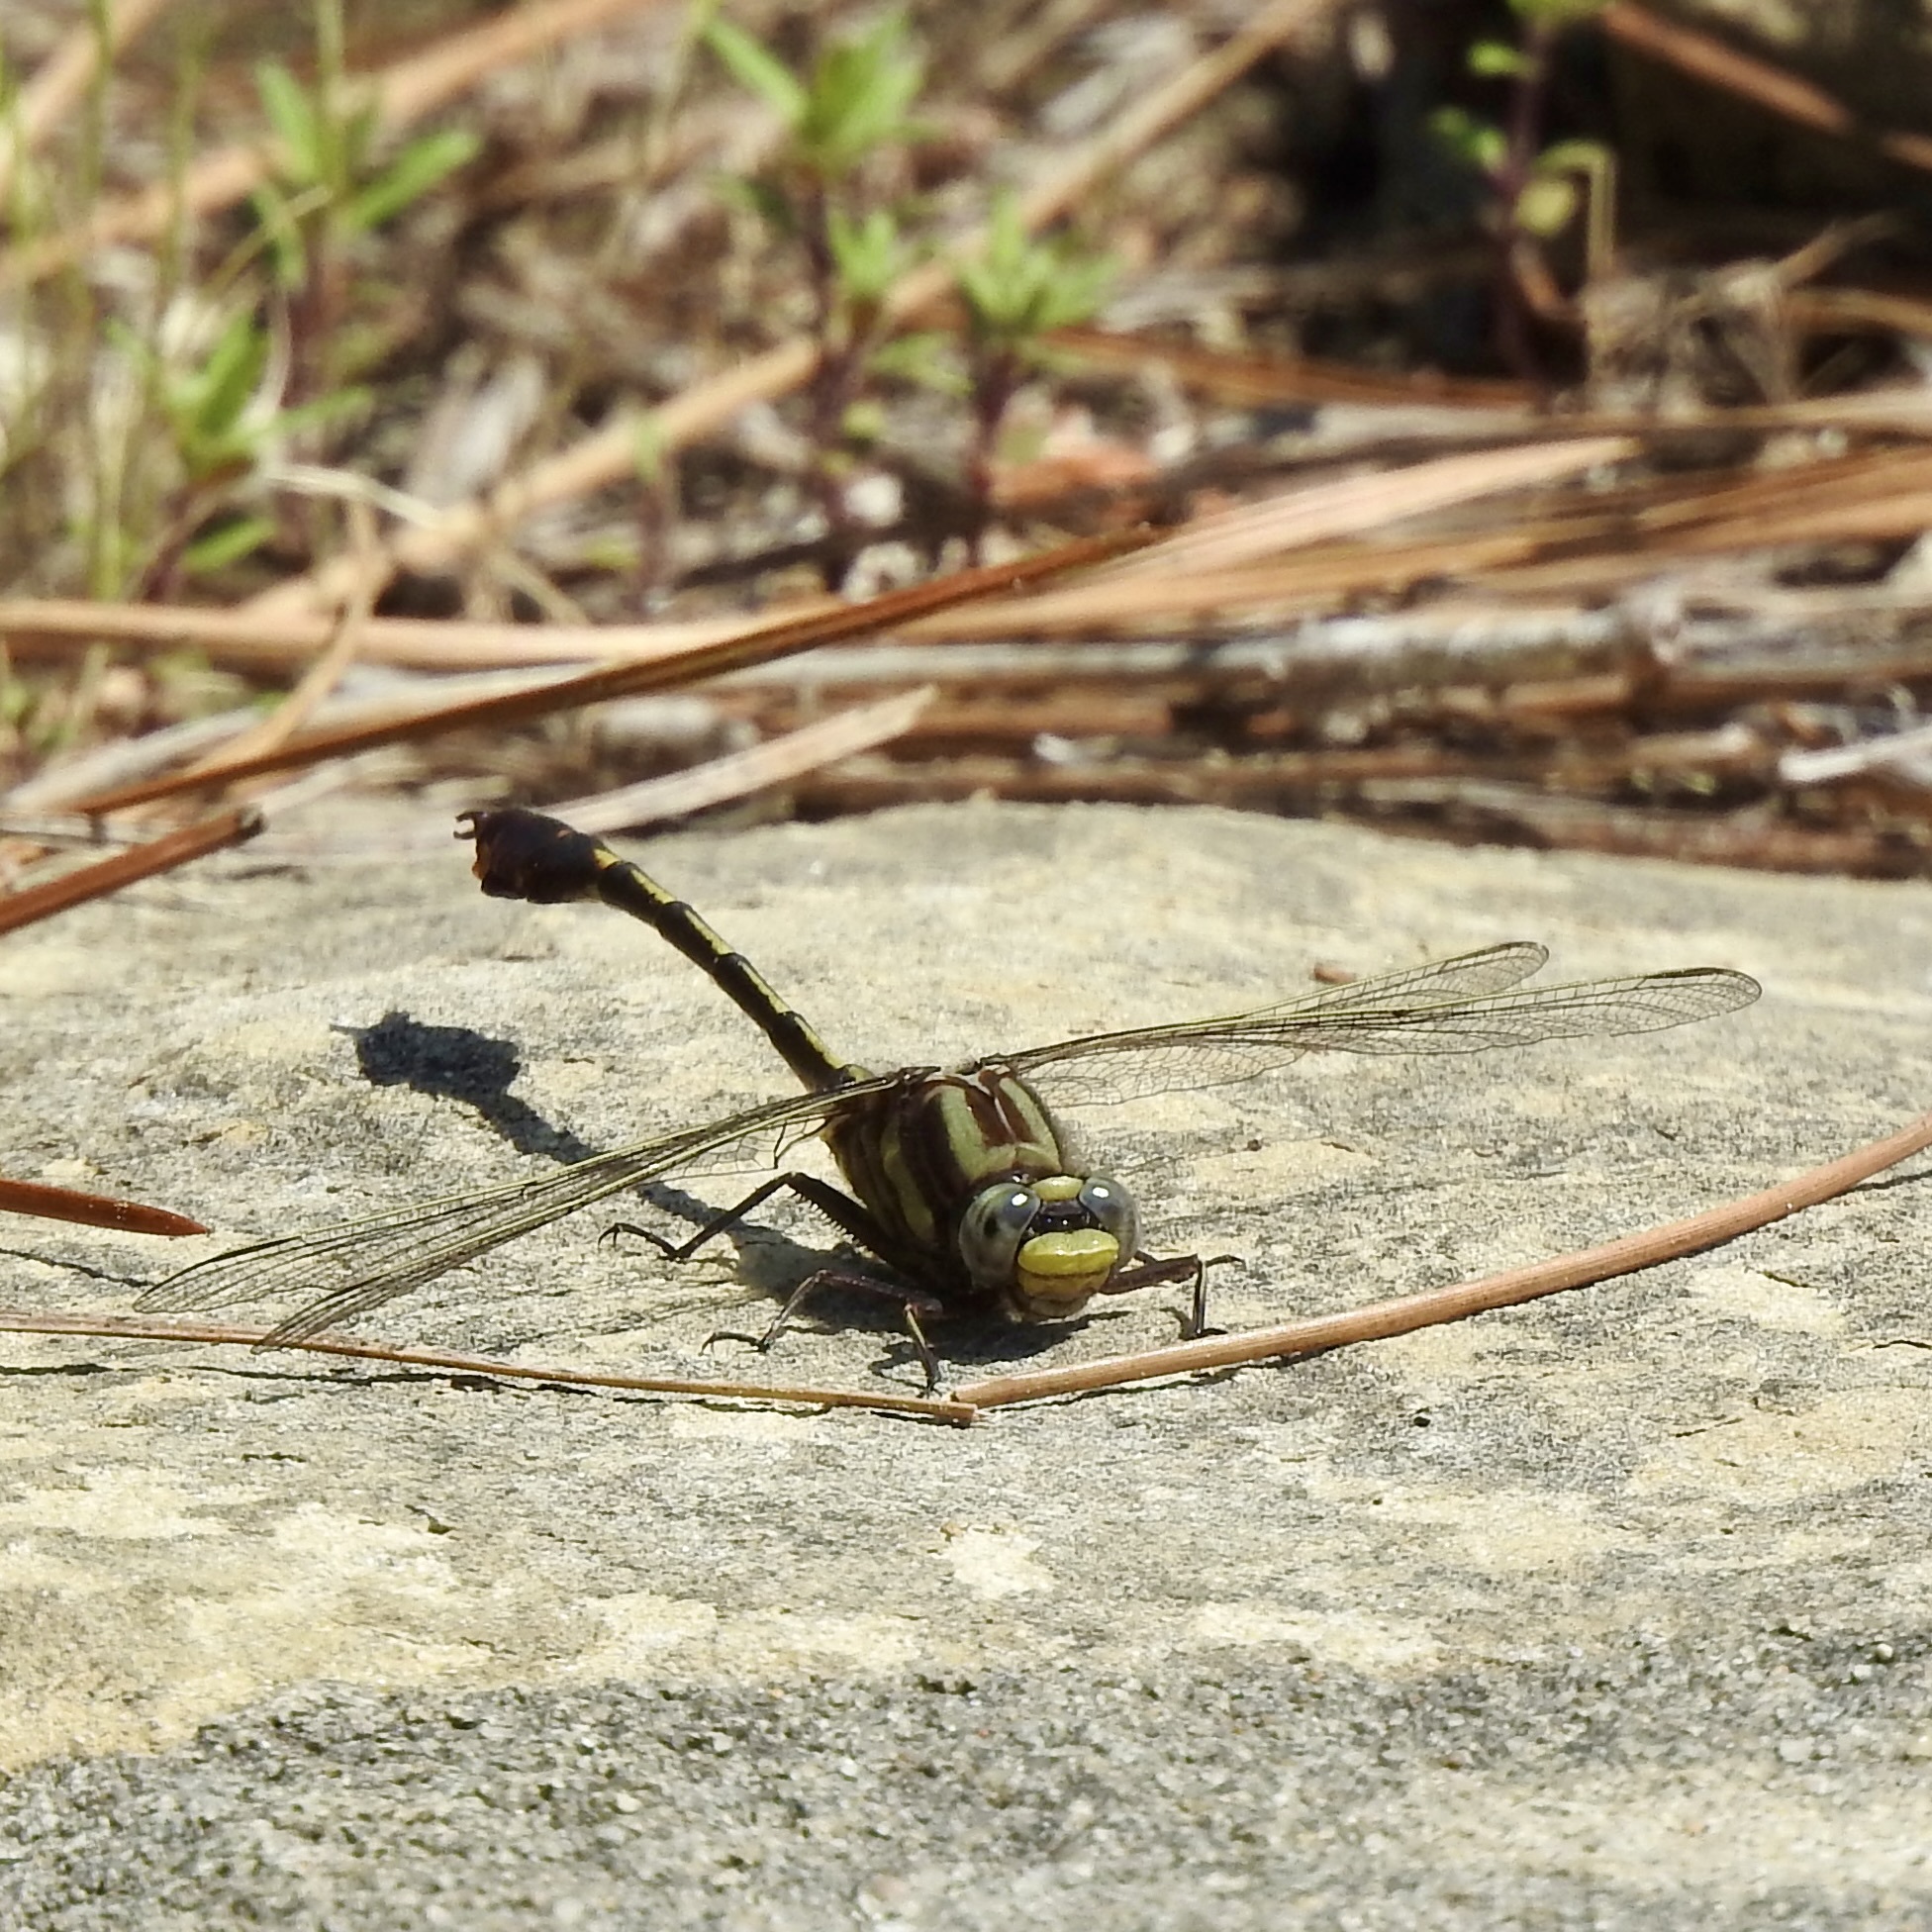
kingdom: Animalia
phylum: Arthropoda
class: Insecta
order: Odonata
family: Gomphidae
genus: Gomphurus
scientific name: Gomphurus hybridus
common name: Cocoa clubtail
